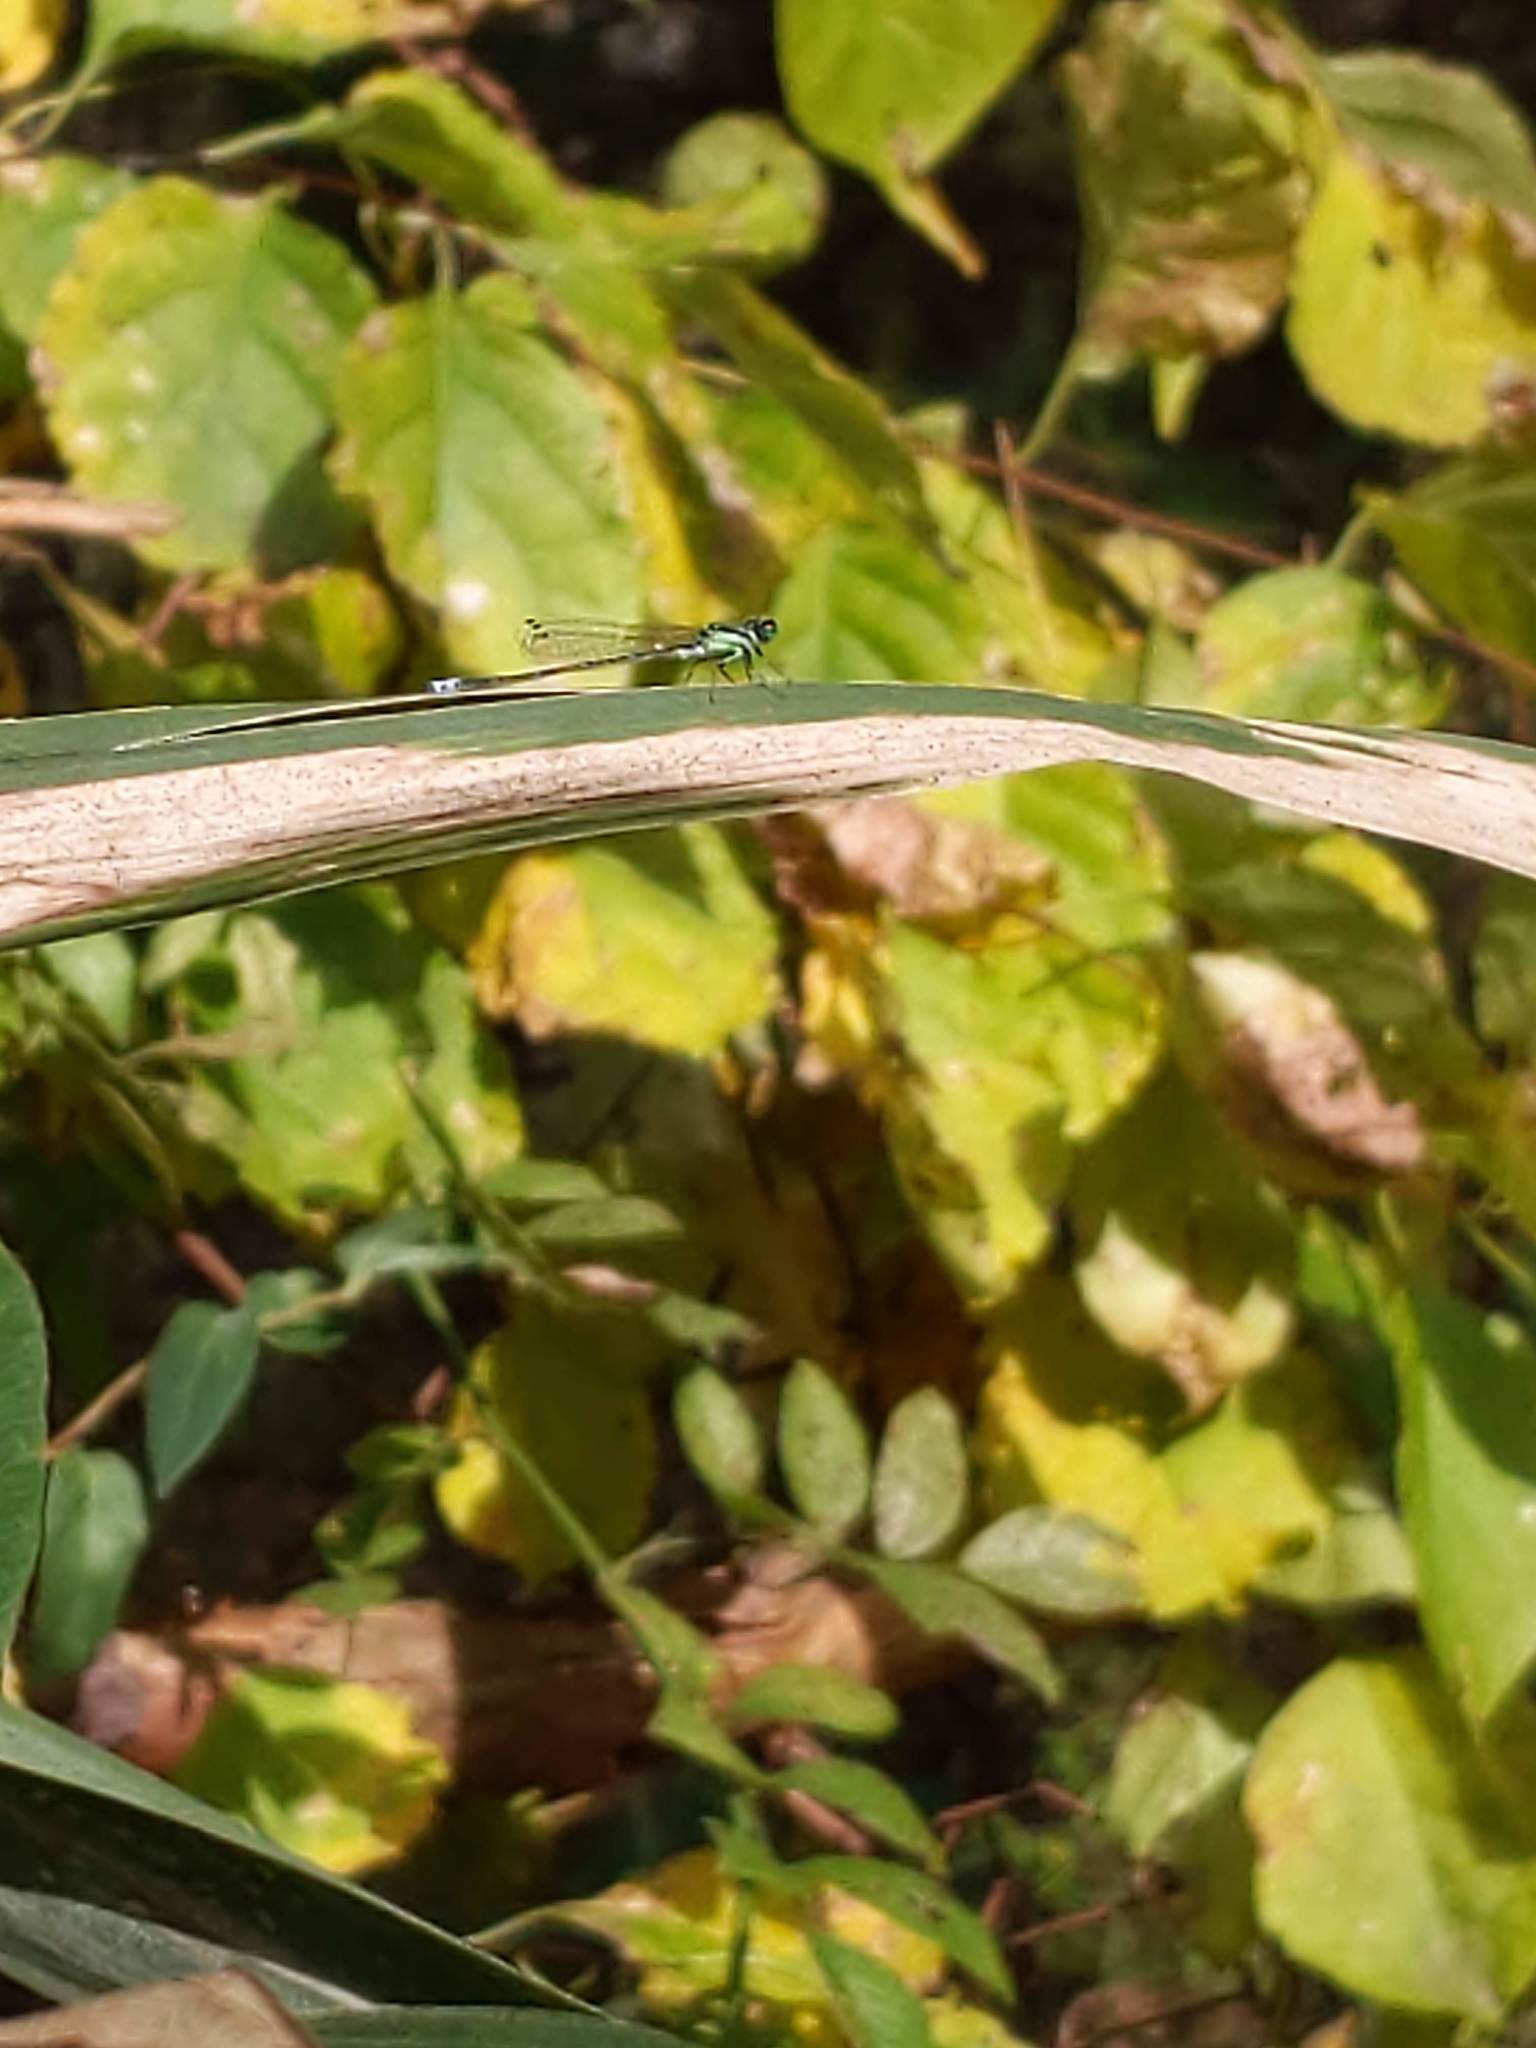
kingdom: Animalia
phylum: Arthropoda
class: Insecta
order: Odonata
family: Coenagrionidae
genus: Ischnura
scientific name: Ischnura verticalis
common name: Eastern forktail
